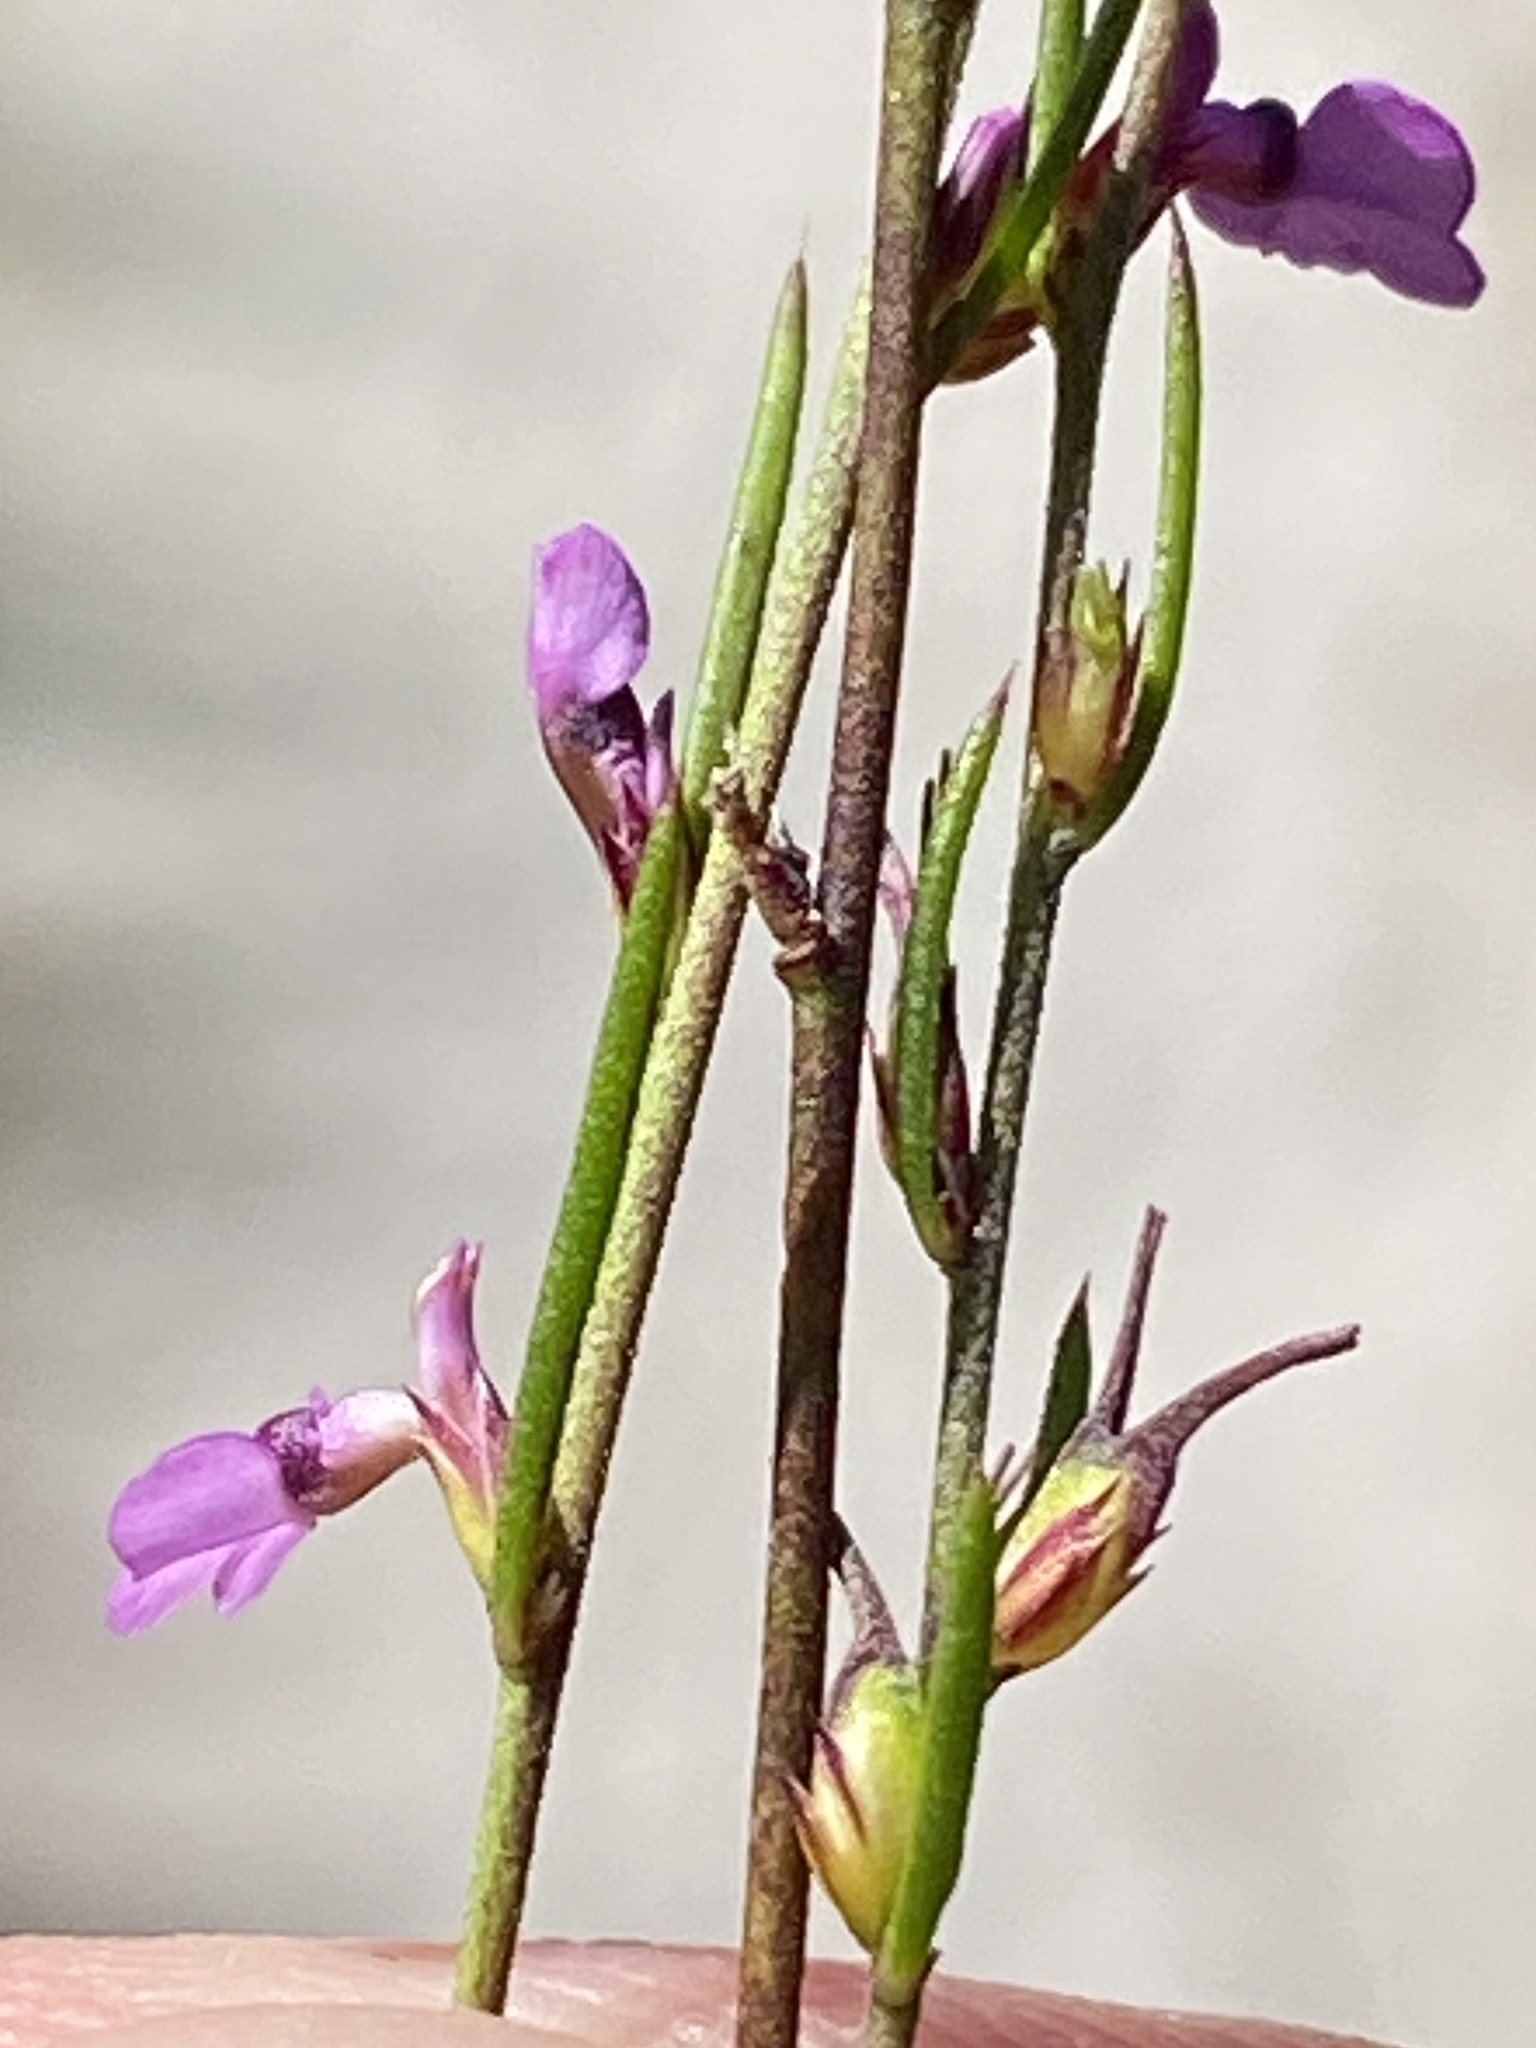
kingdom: Plantae
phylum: Tracheophyta
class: Magnoliopsida
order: Fabales
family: Polygalaceae
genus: Muraltia
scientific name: Muraltia paludosa
